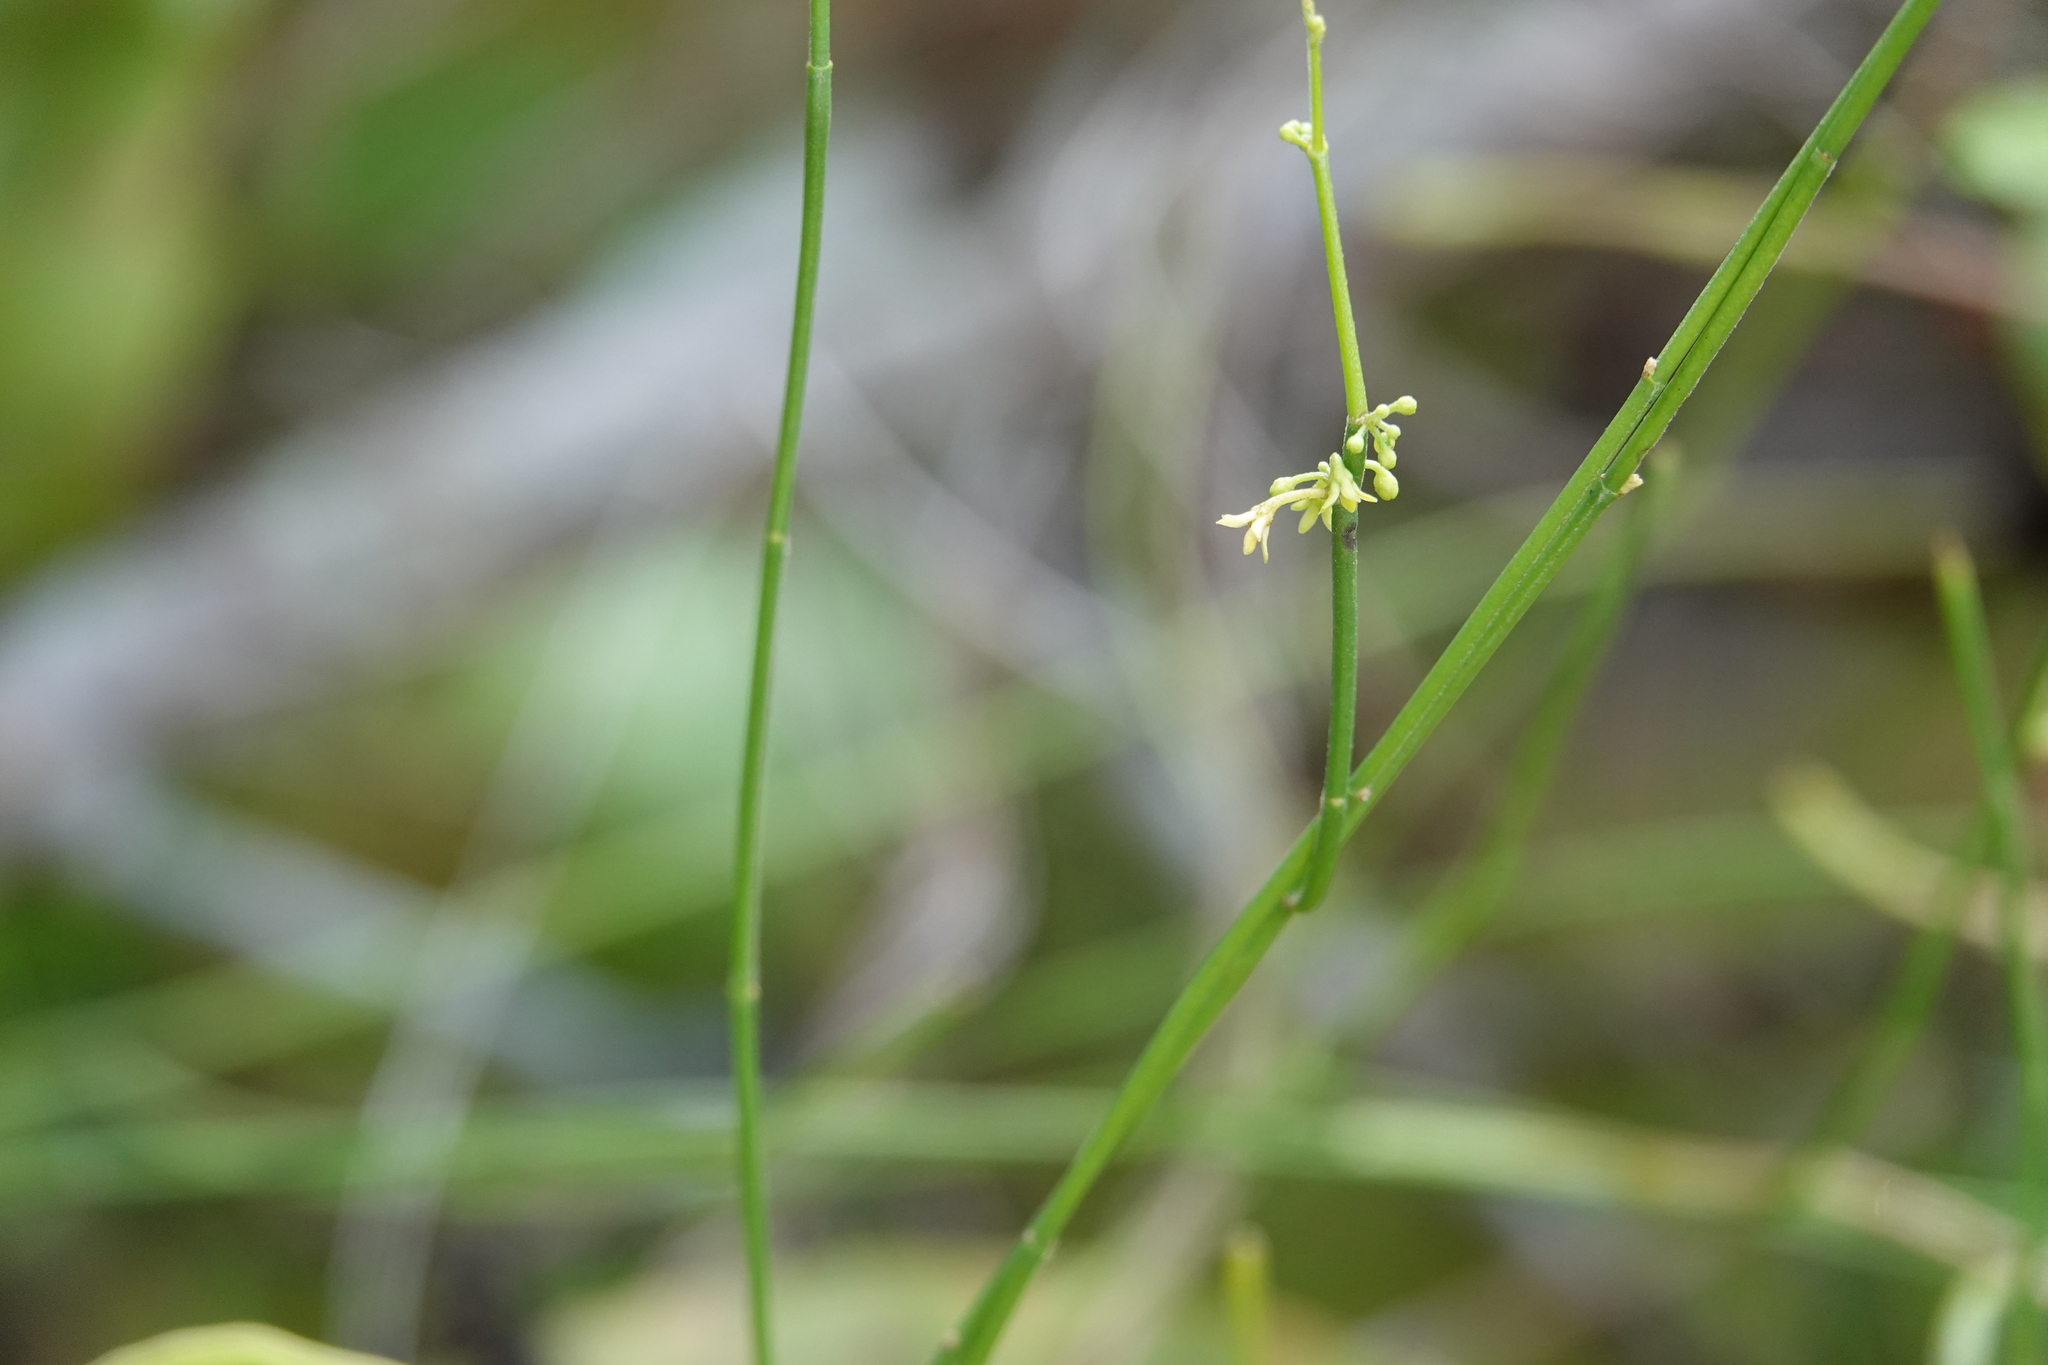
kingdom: Plantae
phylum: Tracheophyta
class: Magnoliopsida
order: Gentianales
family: Apocynaceae
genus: Orthosia
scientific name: Orthosia scoparia
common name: Leafless swallow-wort
